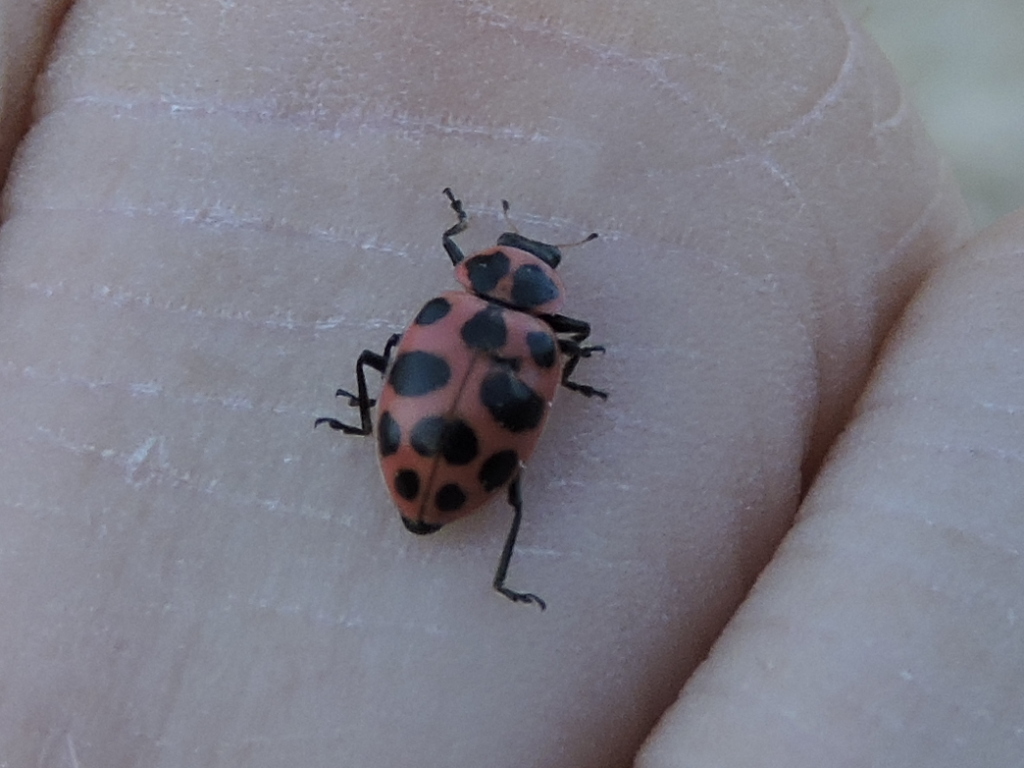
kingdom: Animalia
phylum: Arthropoda
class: Insecta
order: Coleoptera
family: Coccinellidae
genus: Coleomegilla
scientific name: Coleomegilla maculata
